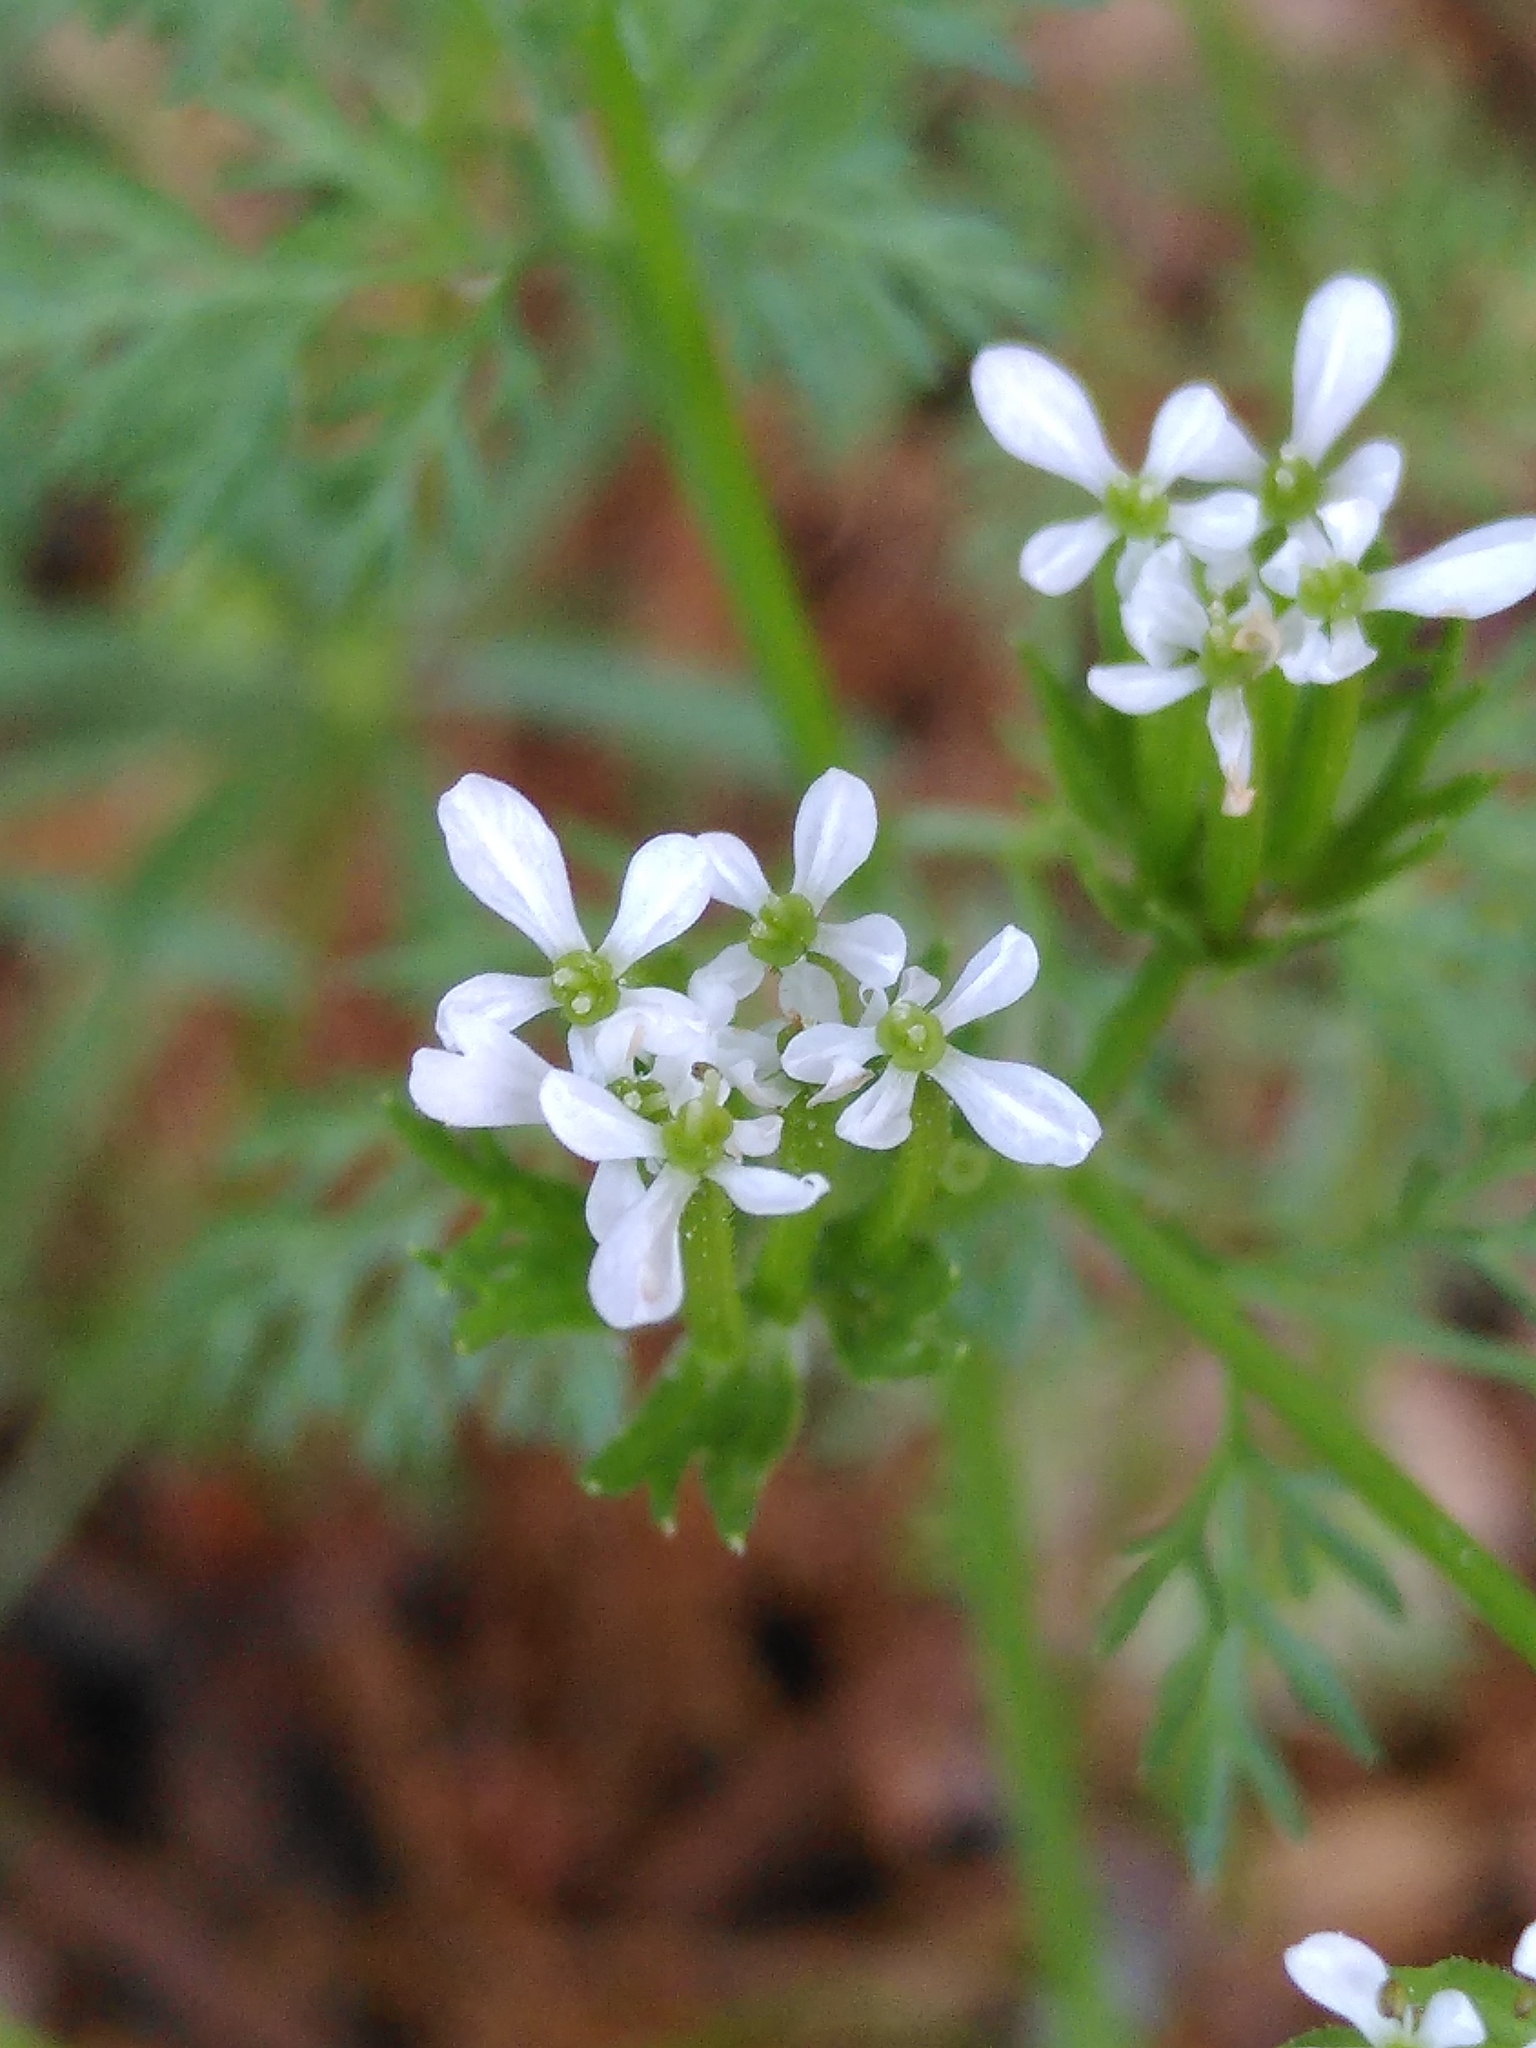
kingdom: Plantae
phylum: Tracheophyta
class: Magnoliopsida
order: Apiales
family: Apiaceae
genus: Scandix
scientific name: Scandix pecten-veneris
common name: Shepherd's-needle
